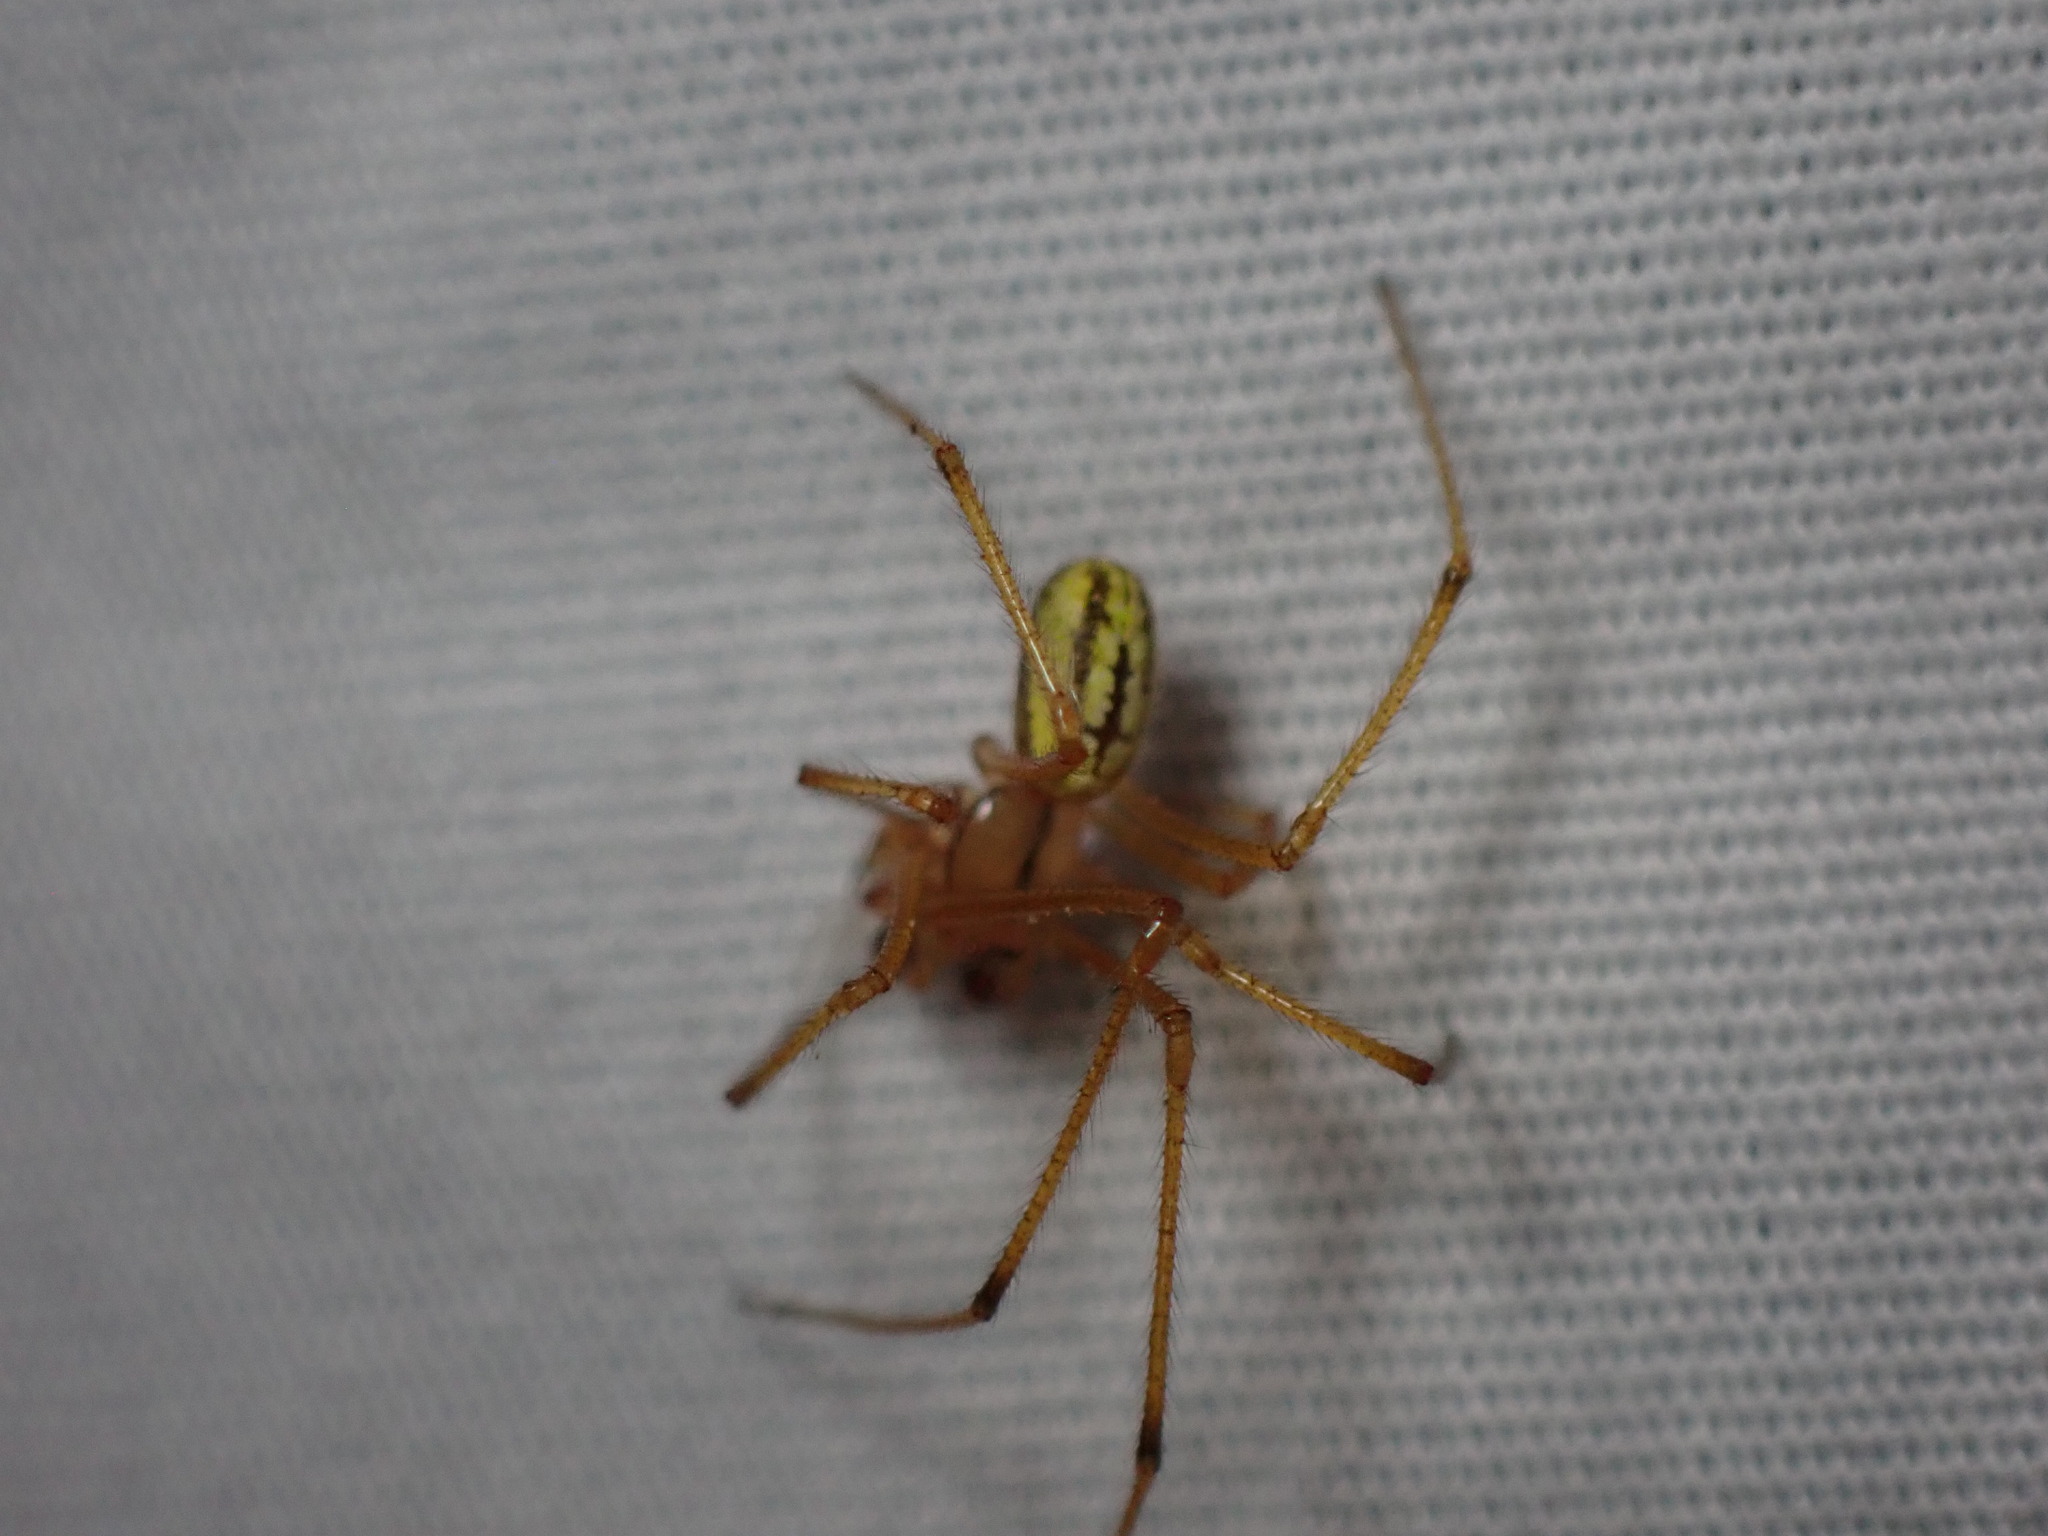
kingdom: Animalia
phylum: Arthropoda
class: Arachnida
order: Araneae
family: Theridiidae
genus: Enoplognatha
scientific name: Enoplognatha ovata
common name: Common candy-striped spider
